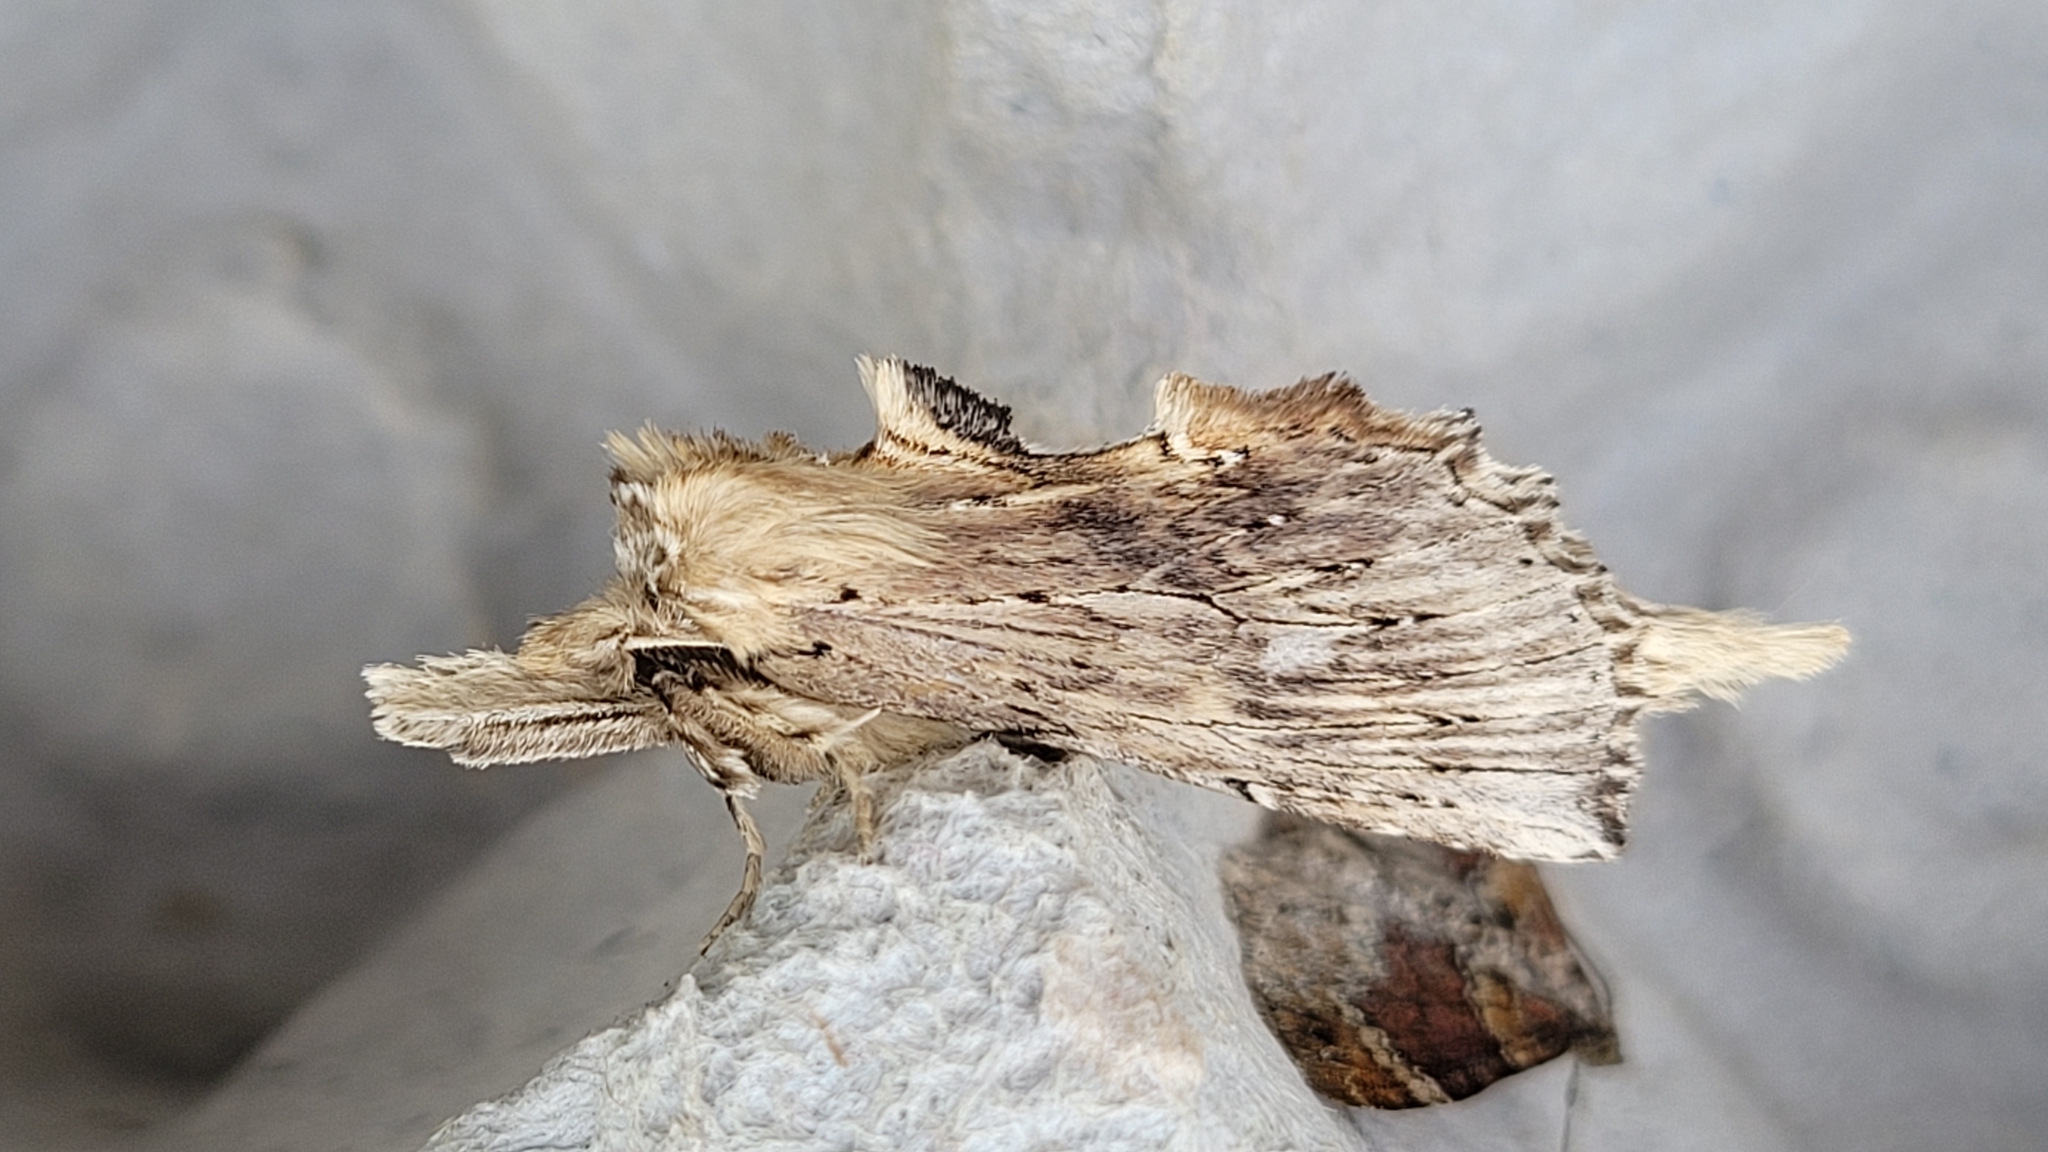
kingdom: Animalia
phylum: Arthropoda
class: Insecta
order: Lepidoptera
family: Notodontidae
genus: Pterostoma
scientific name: Pterostoma palpina
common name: Pale prominent
